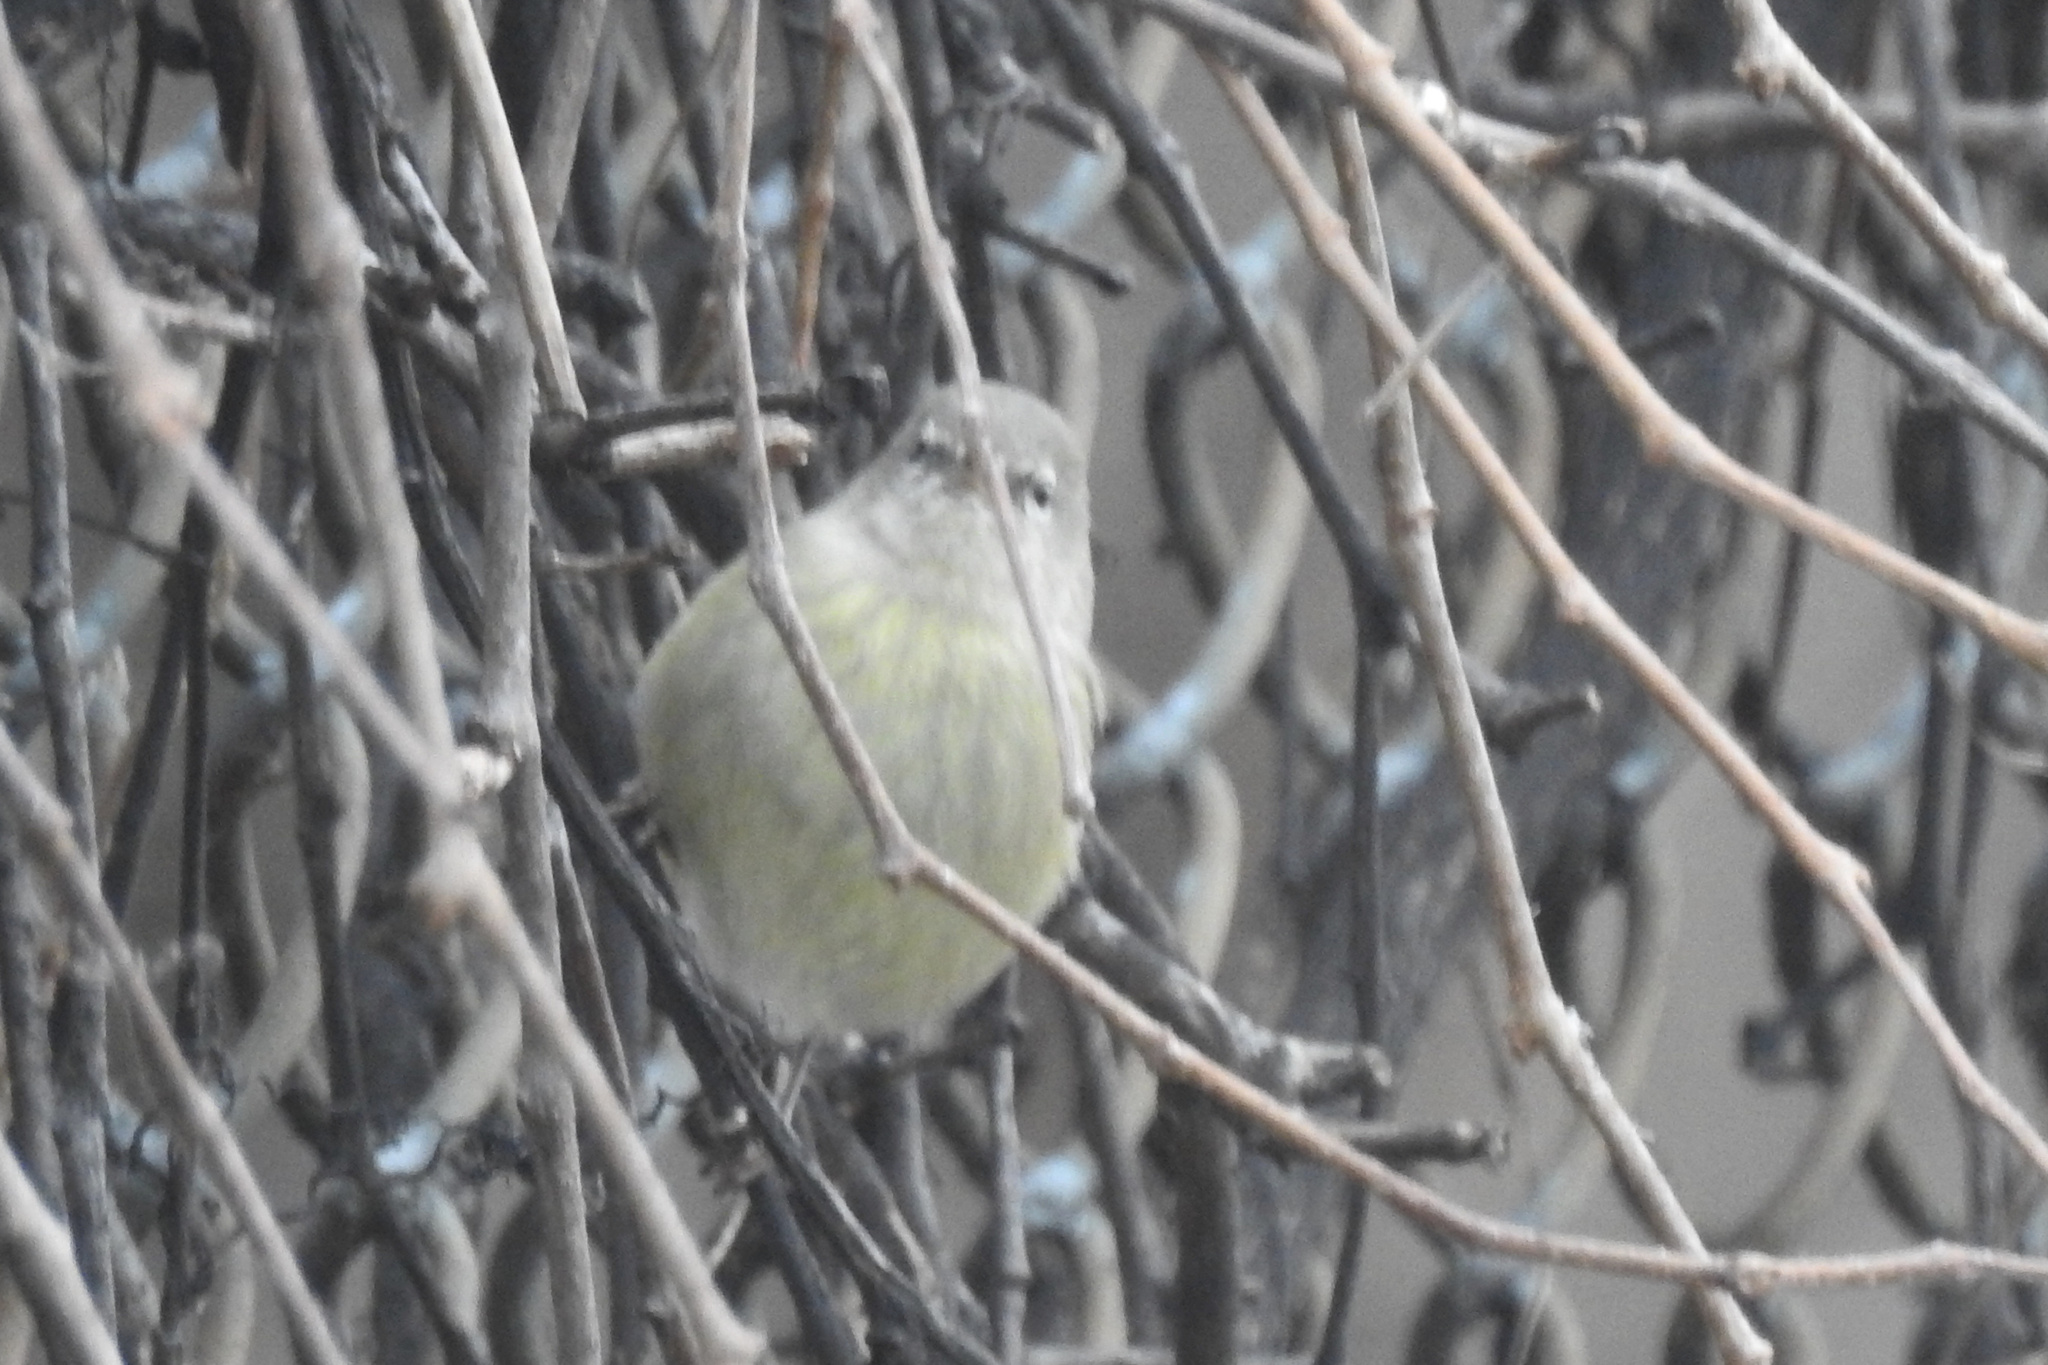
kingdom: Animalia
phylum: Chordata
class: Aves
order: Passeriformes
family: Parulidae
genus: Leiothlypis
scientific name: Leiothlypis celata
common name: Orange-crowned warbler
